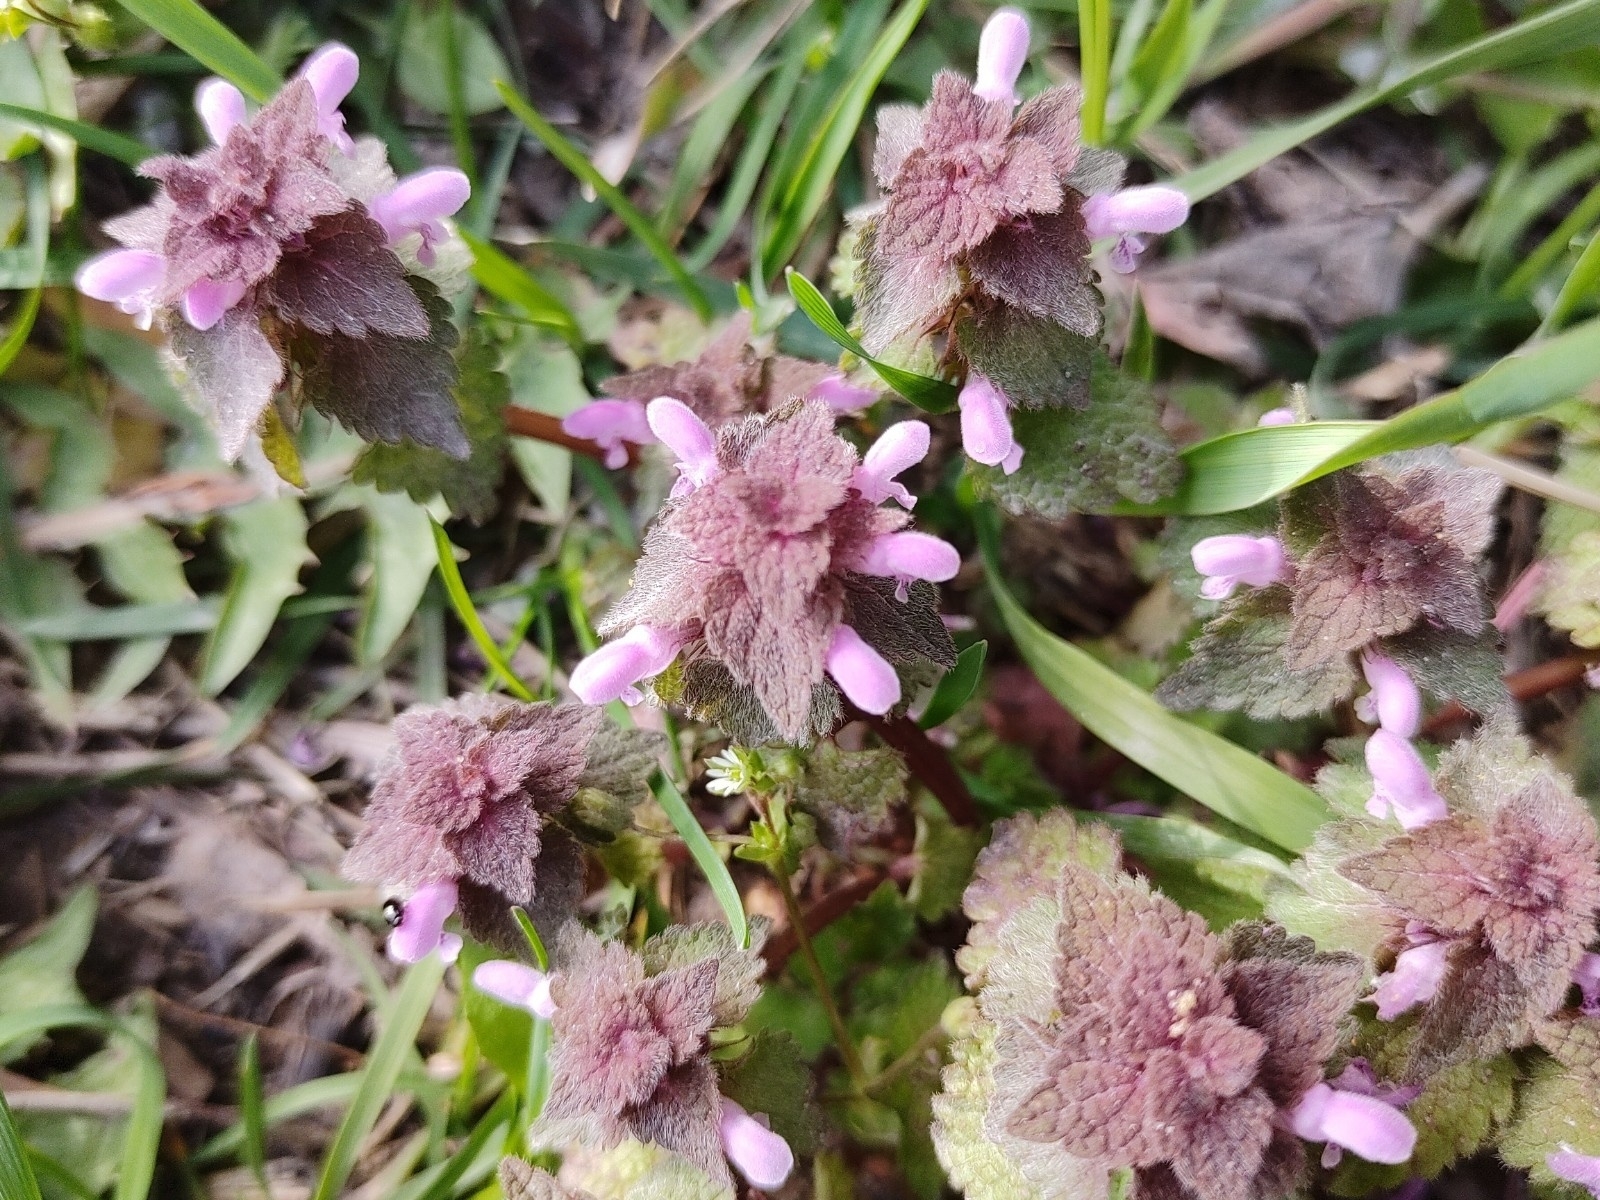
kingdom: Plantae
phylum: Tracheophyta
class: Magnoliopsida
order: Lamiales
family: Lamiaceae
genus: Lamium
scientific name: Lamium purpureum
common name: Red dead-nettle
